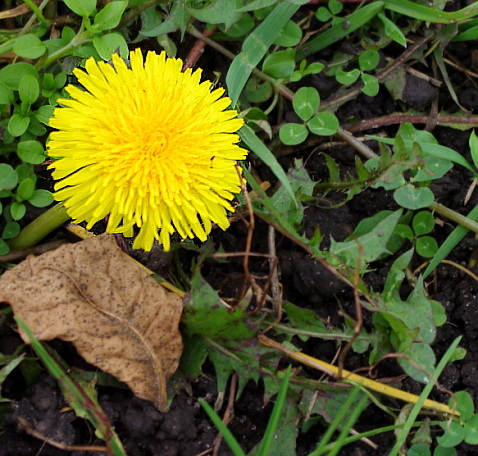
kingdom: Plantae
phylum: Tracheophyta
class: Magnoliopsida
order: Asterales
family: Asteraceae
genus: Taraxacum
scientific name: Taraxacum officinale
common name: Common dandelion
